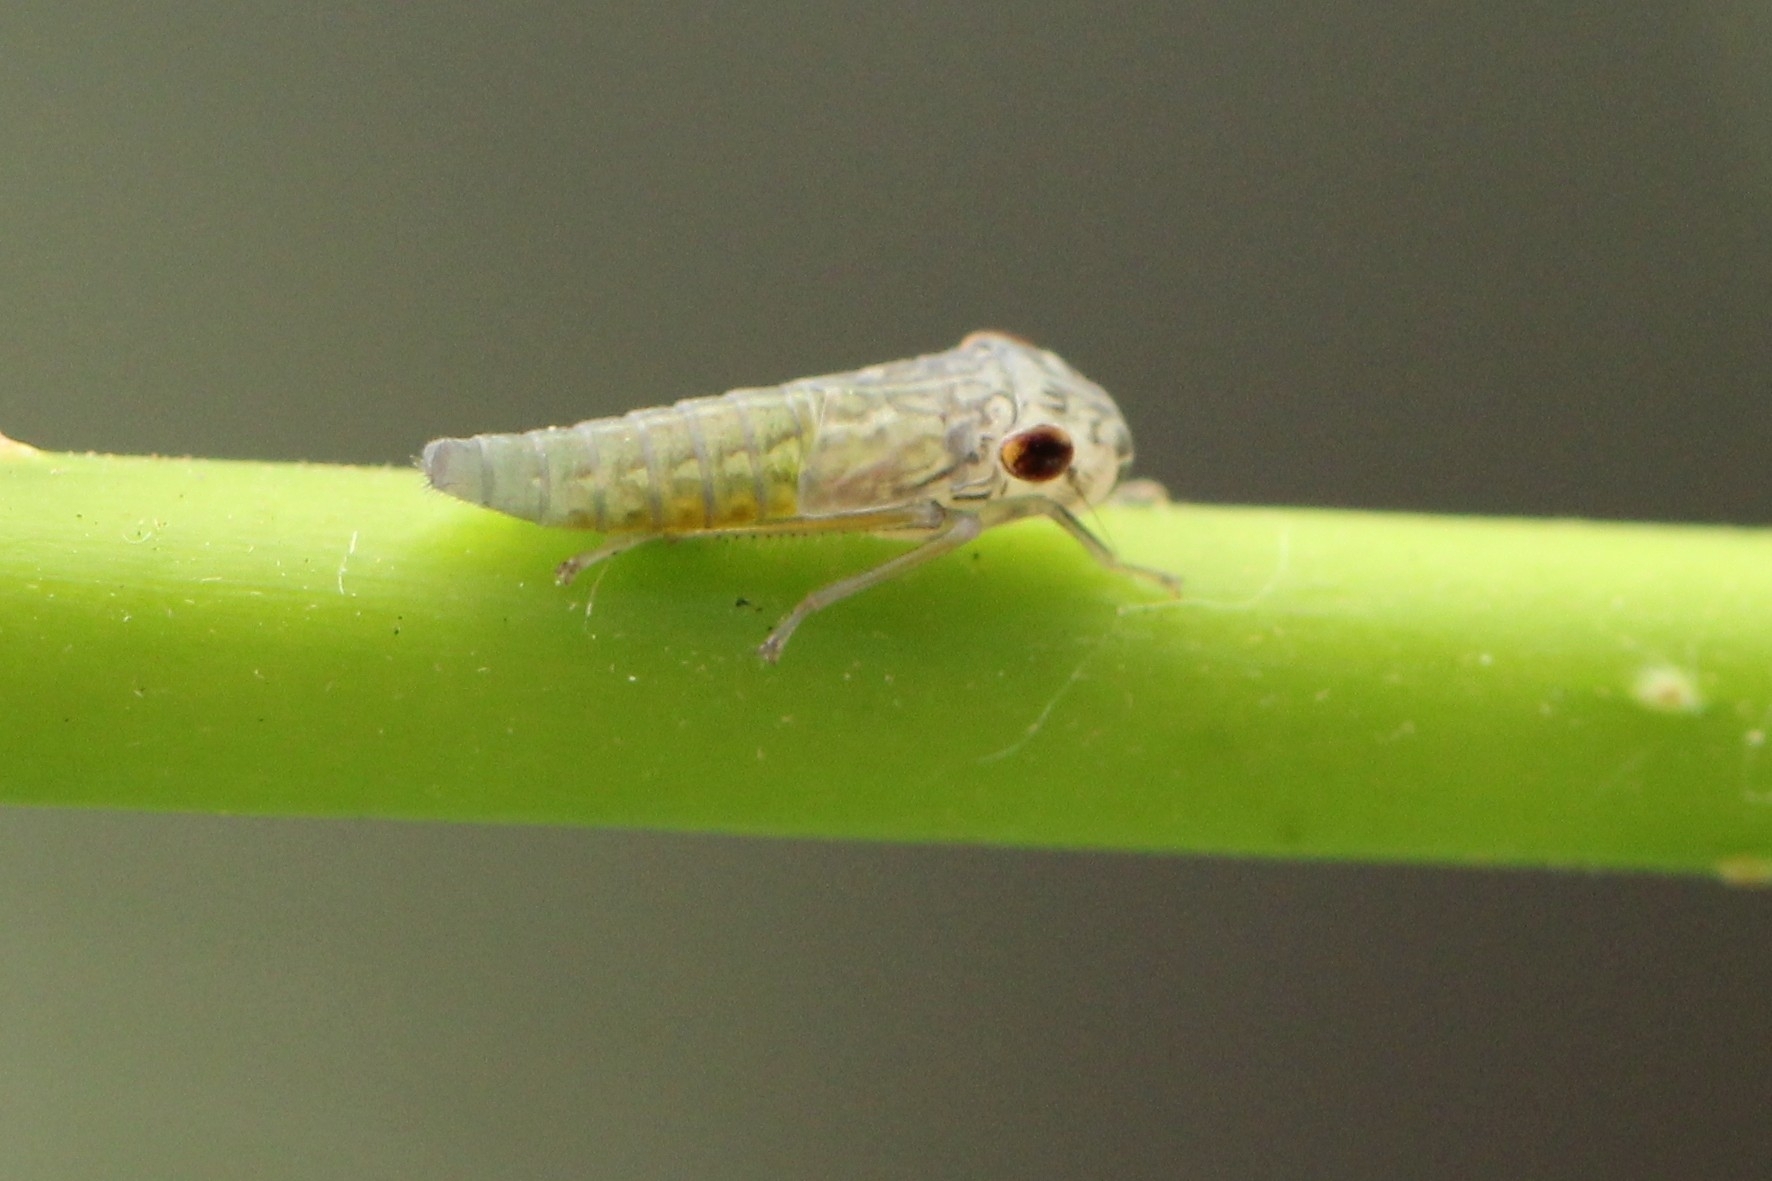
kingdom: Animalia
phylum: Arthropoda
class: Insecta
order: Hemiptera
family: Cicadellidae
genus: Oncometopia
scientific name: Oncometopia orbona
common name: Broad-headed sharpshooter
